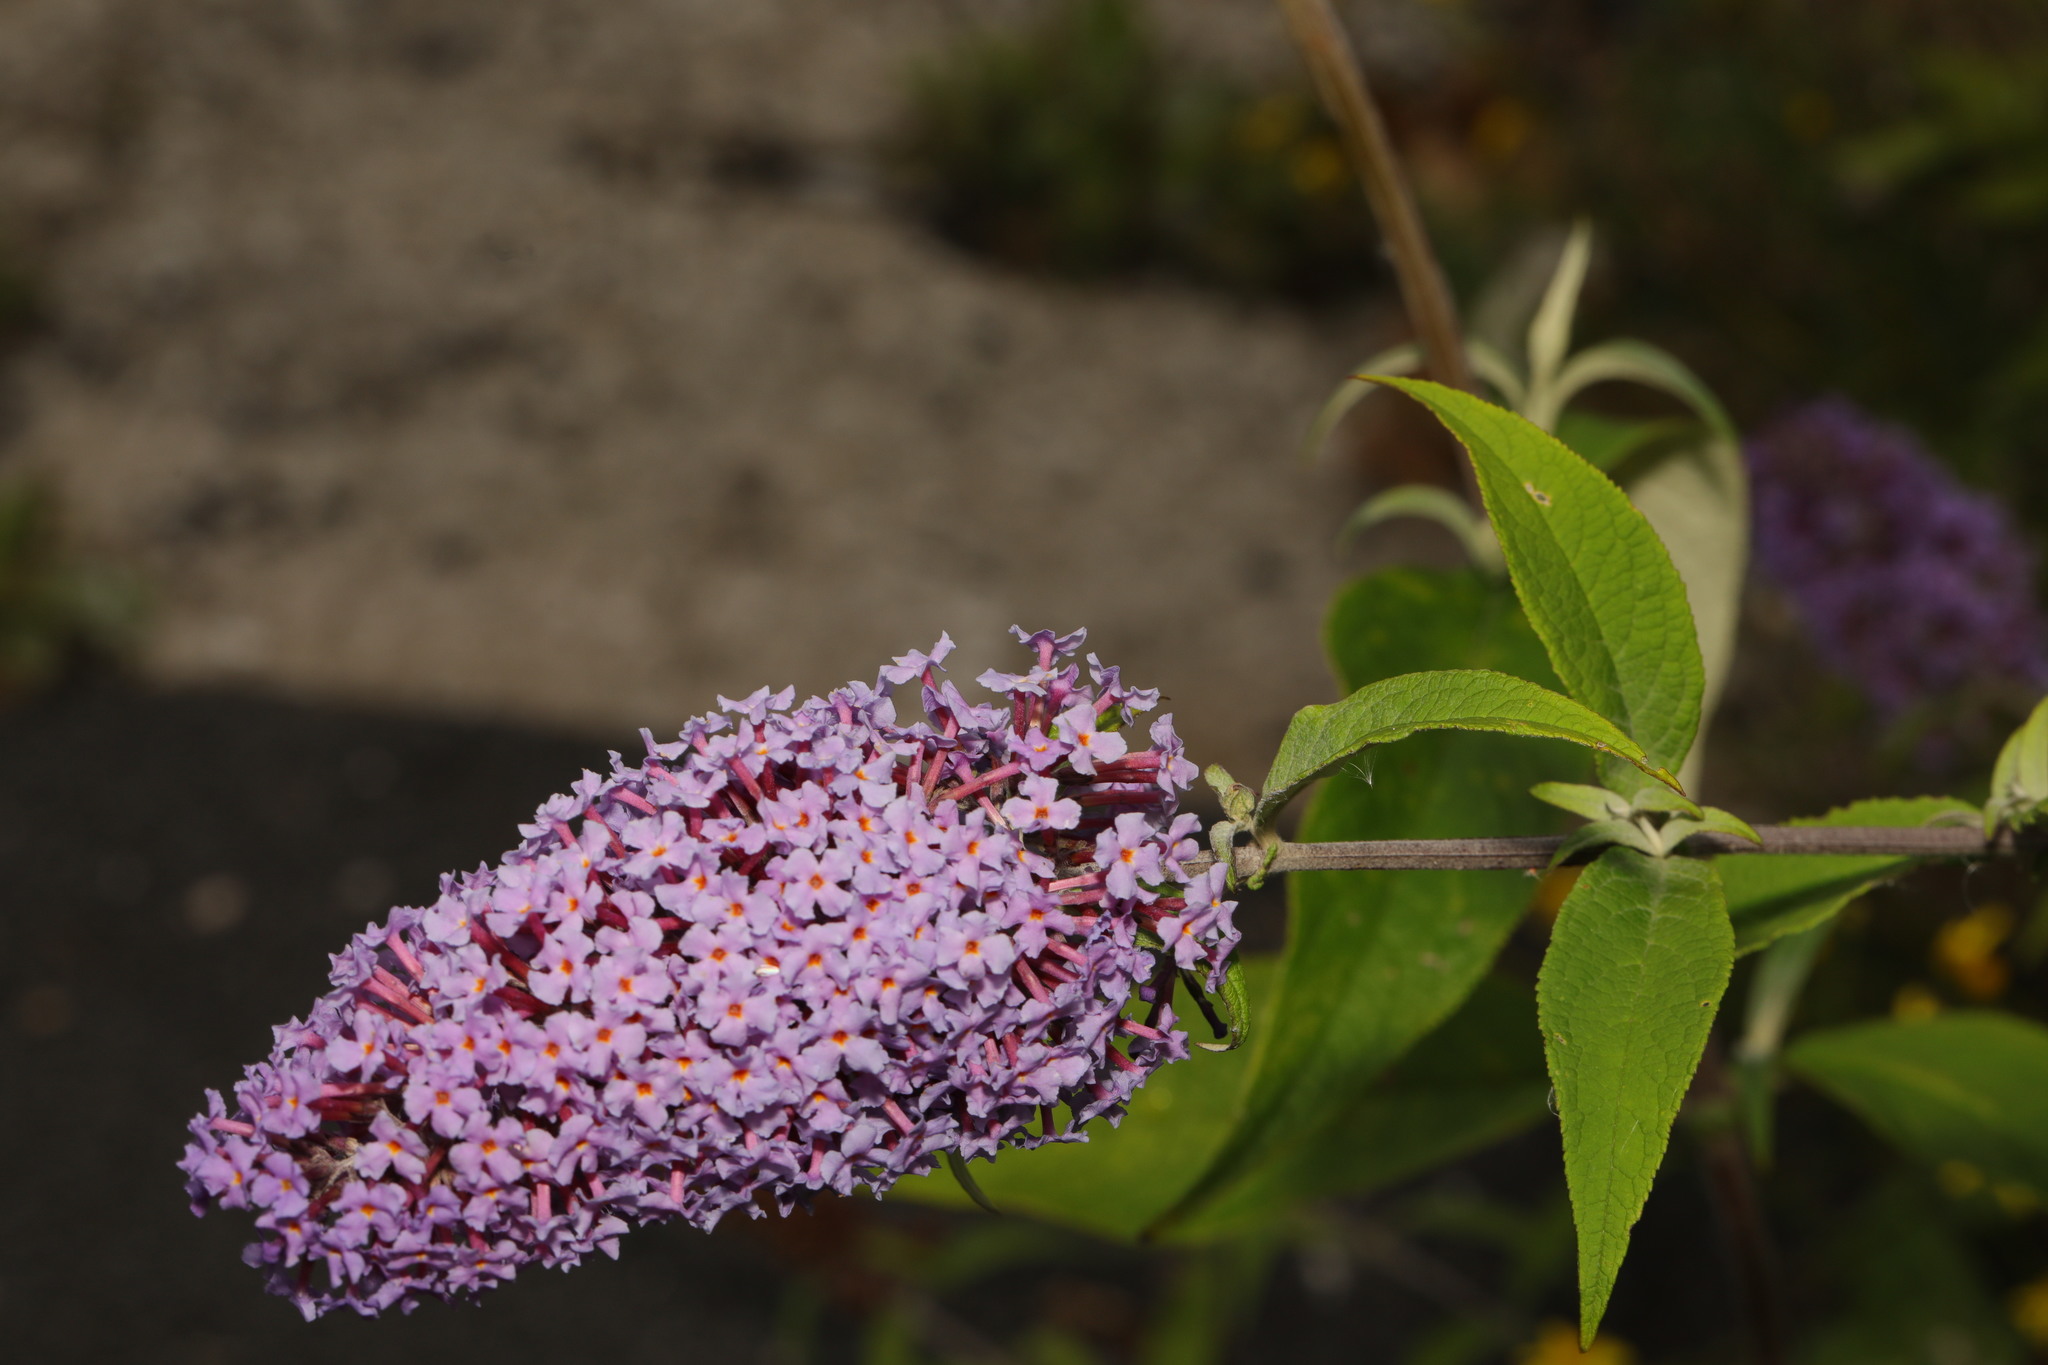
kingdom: Plantae
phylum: Tracheophyta
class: Magnoliopsida
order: Lamiales
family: Scrophulariaceae
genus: Buddleja
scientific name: Buddleja davidii
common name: Butterfly-bush
